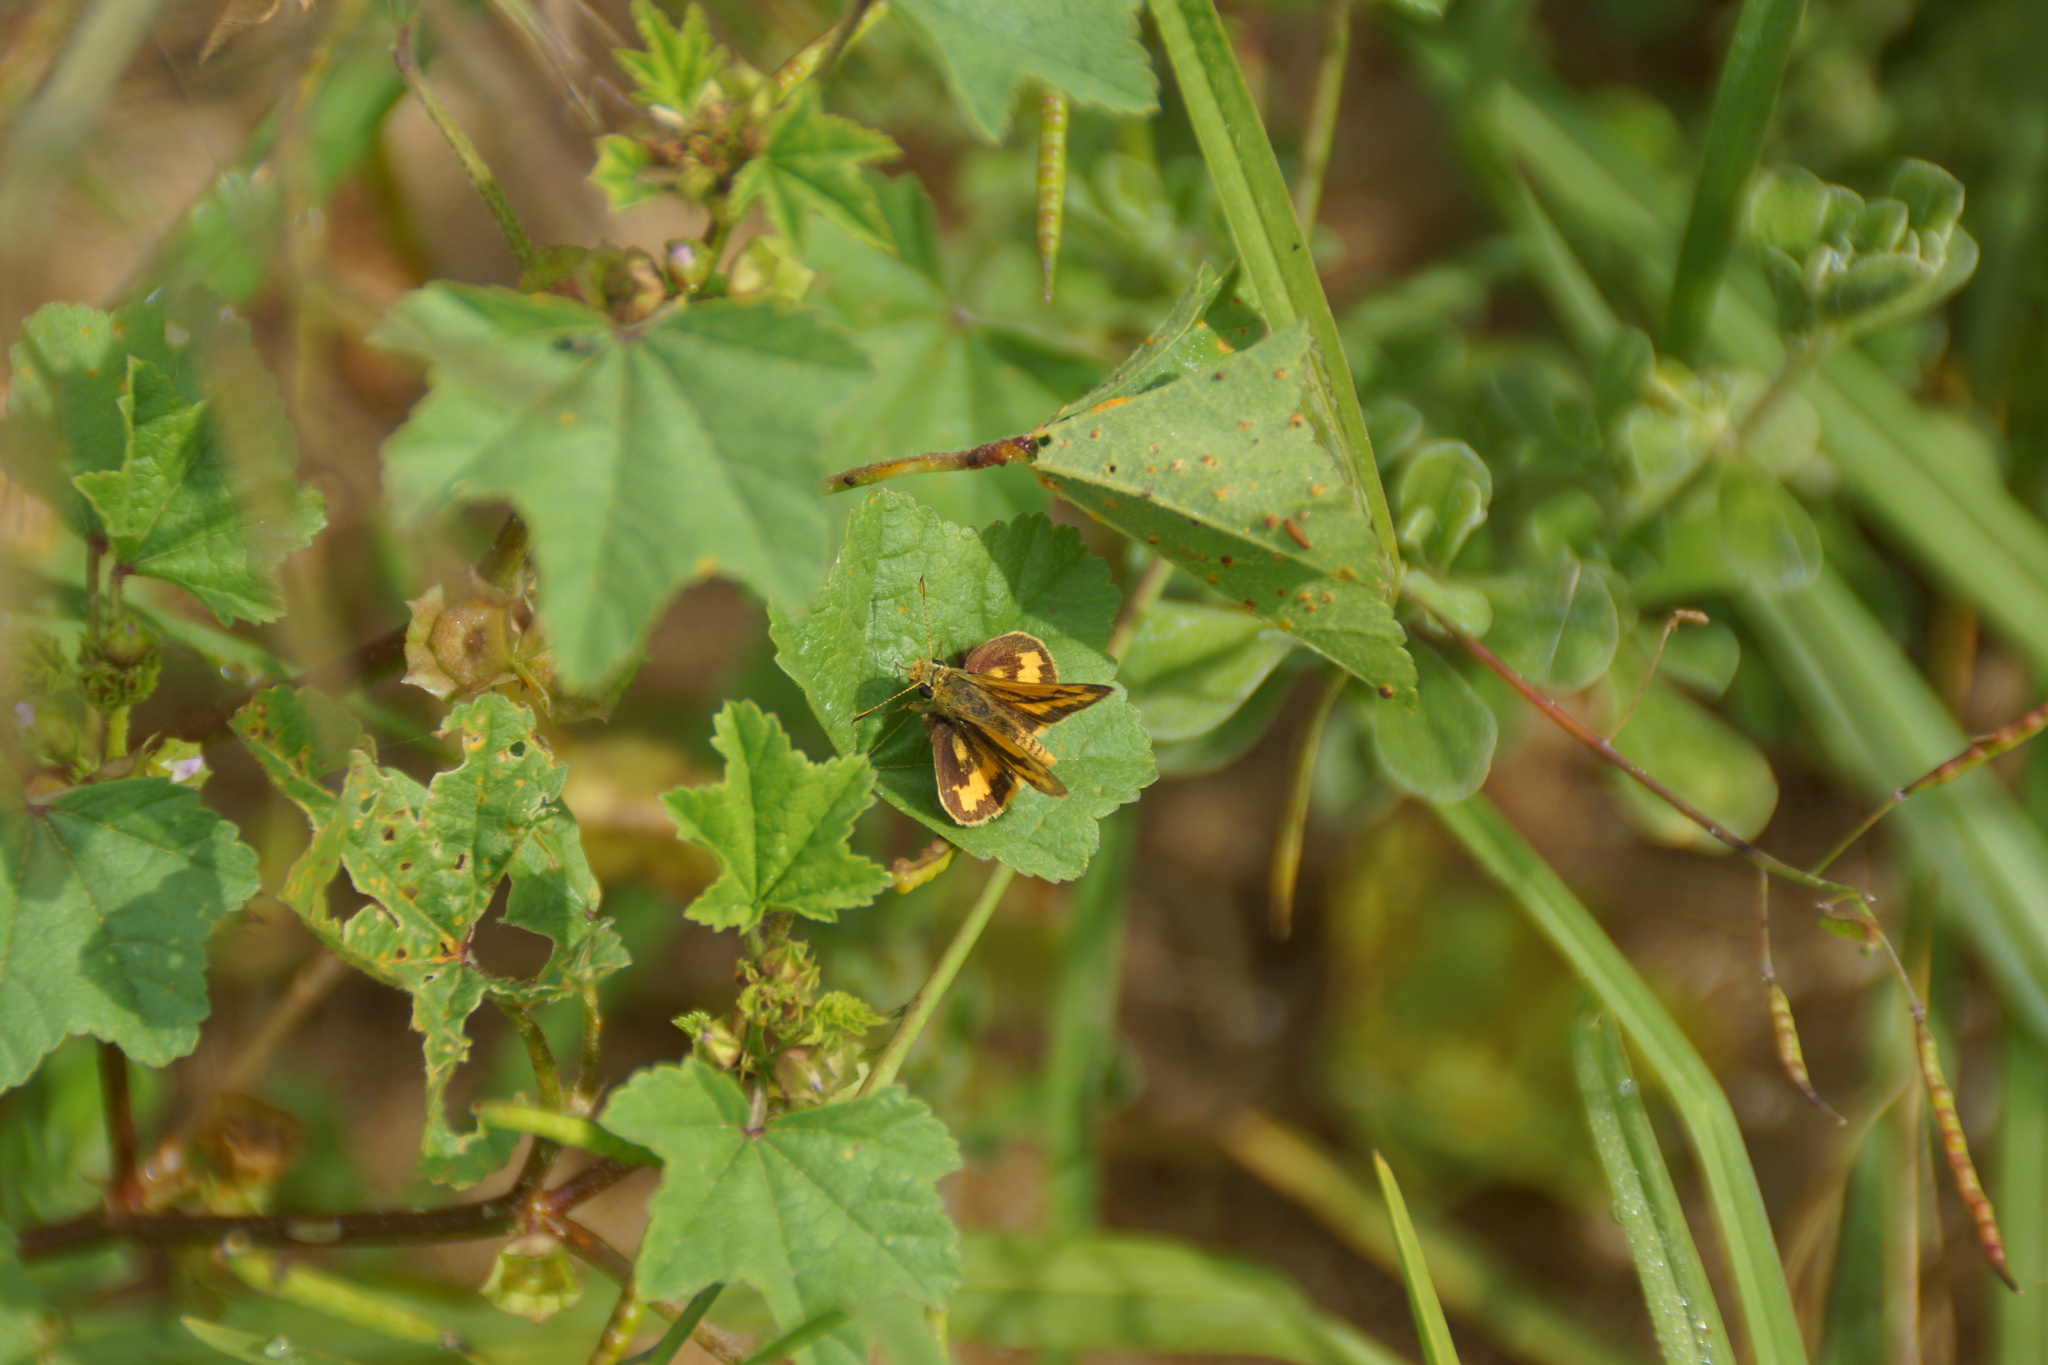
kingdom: Animalia
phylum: Arthropoda
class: Insecta
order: Lepidoptera
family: Hesperiidae
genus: Ocybadistes
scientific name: Ocybadistes walkeri
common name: Yellow-banded dart
